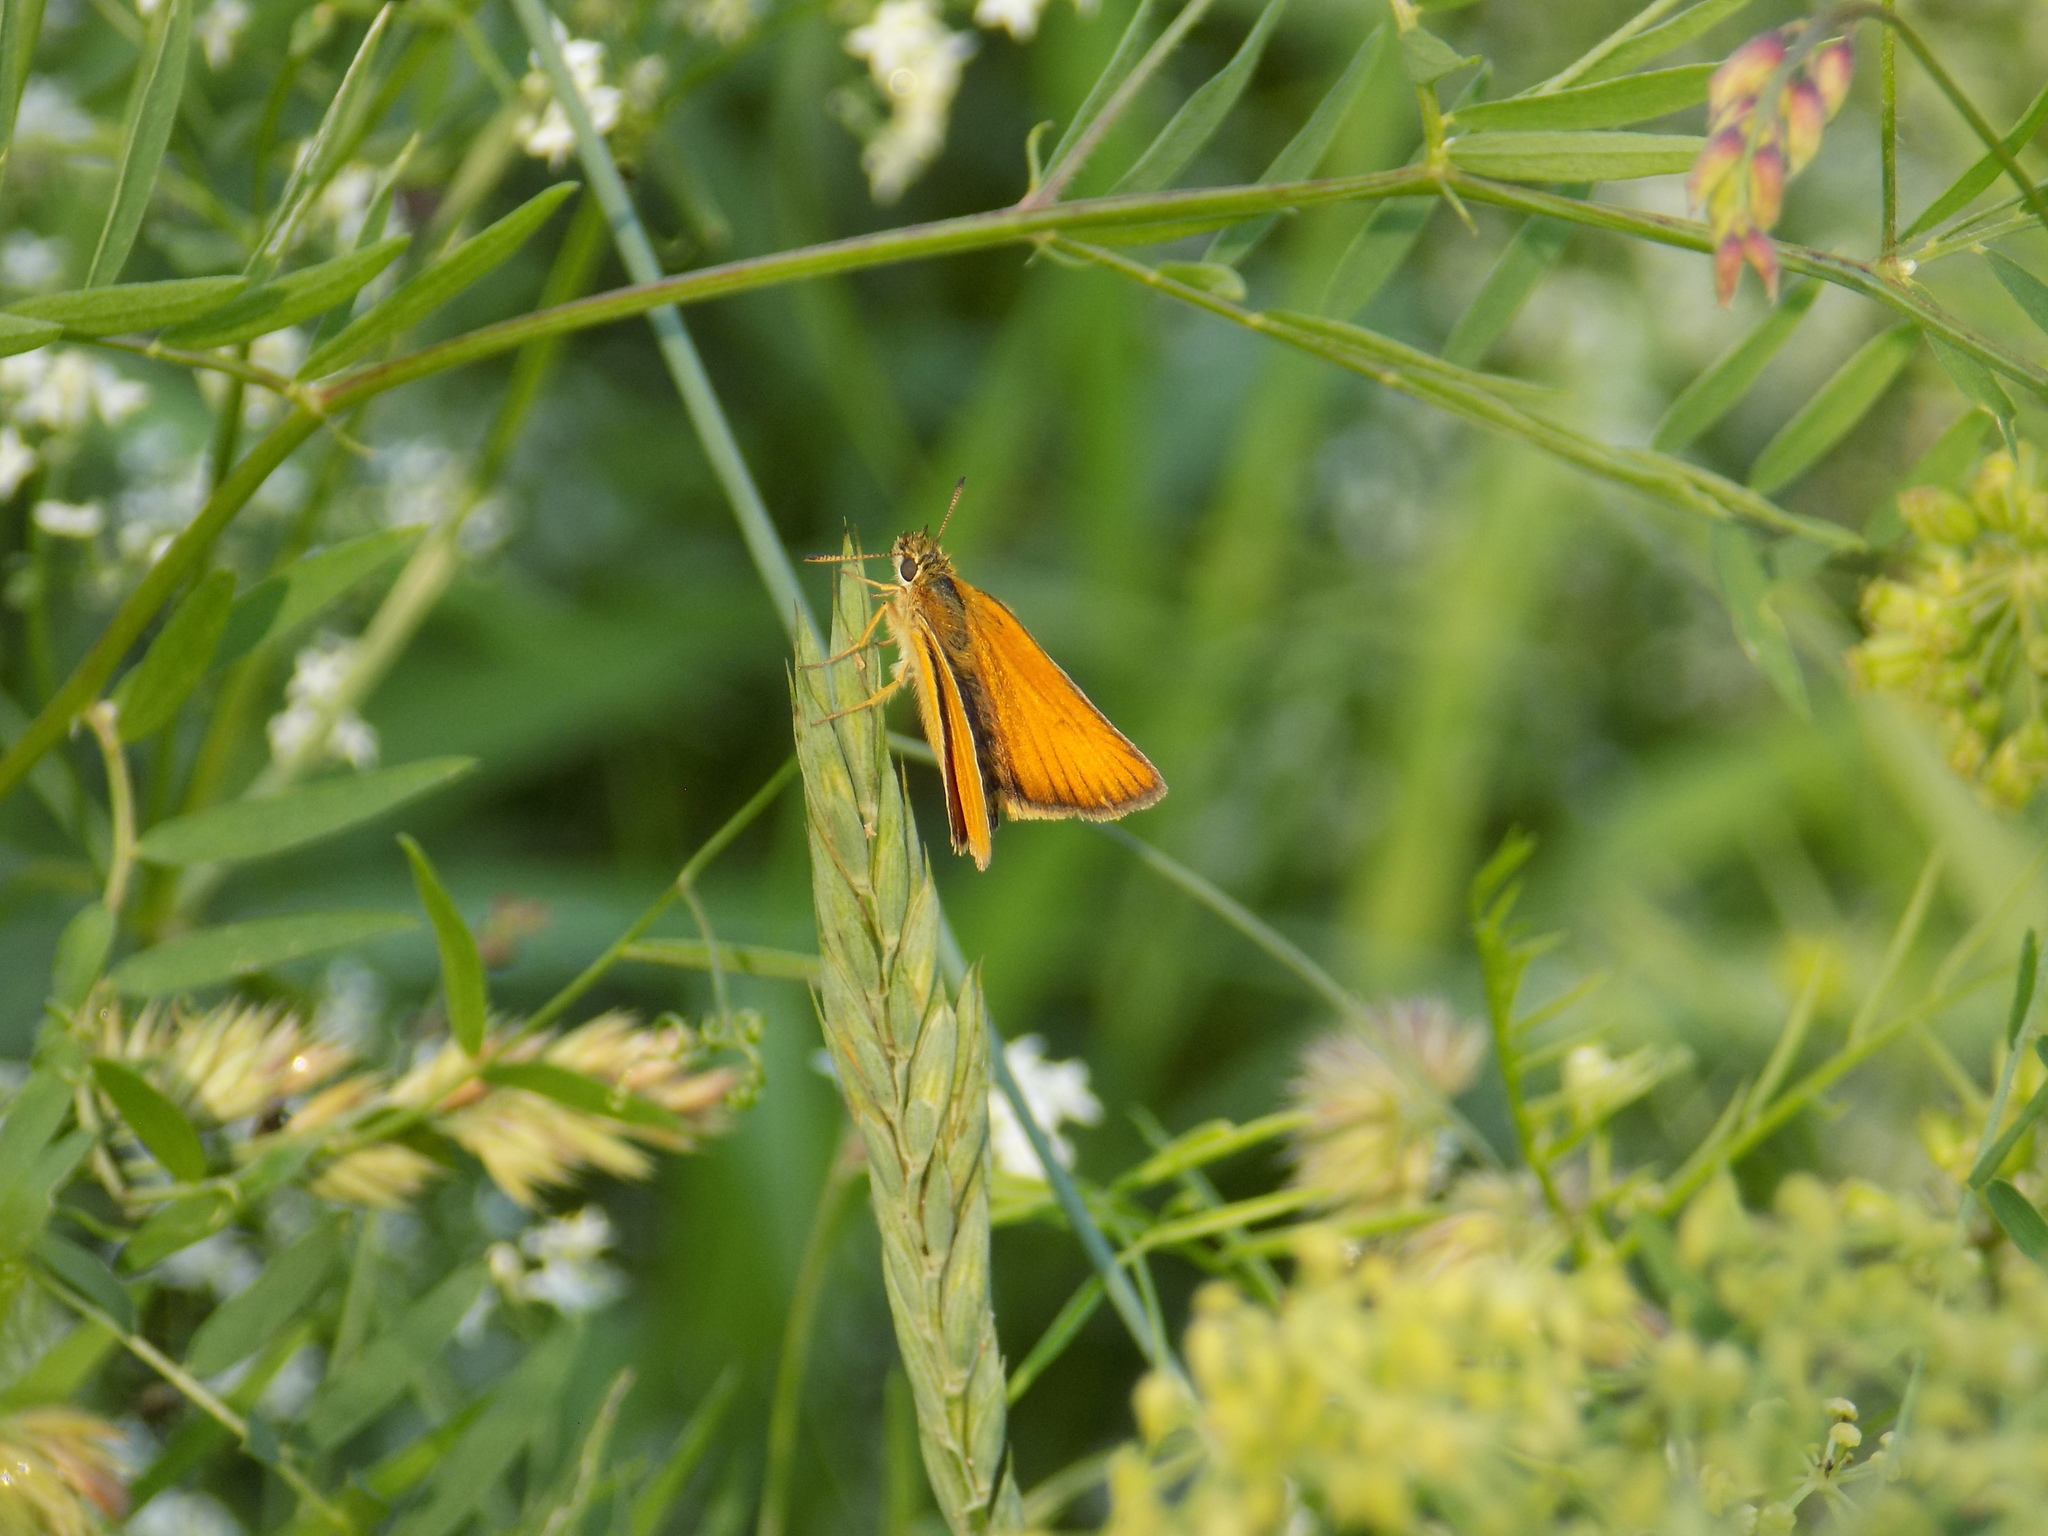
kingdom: Animalia
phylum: Arthropoda
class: Insecta
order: Lepidoptera
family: Hesperiidae
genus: Thymelicus
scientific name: Thymelicus lineola
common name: Essex skipper
